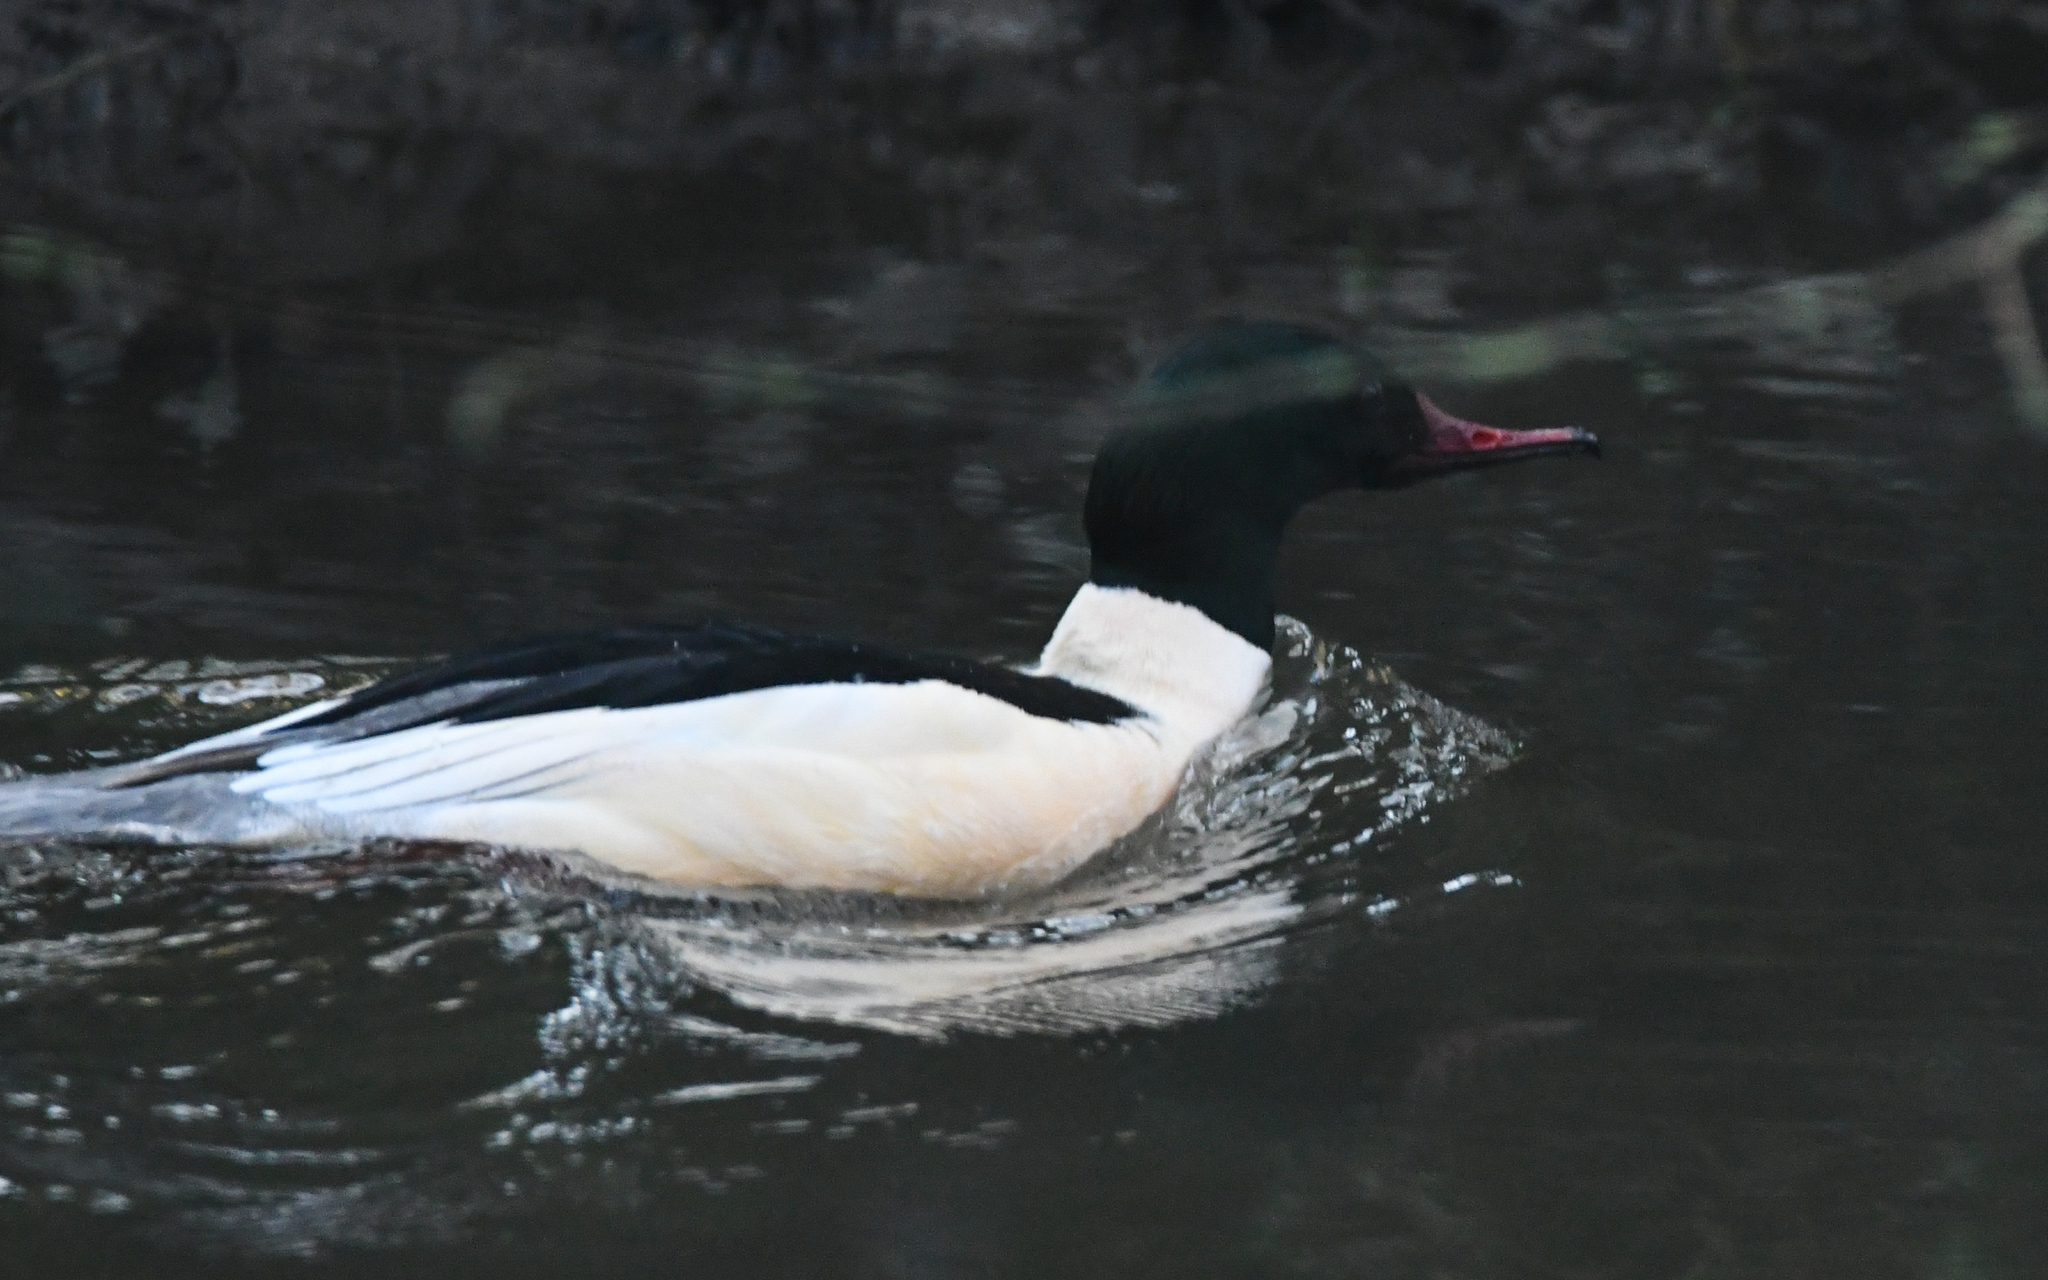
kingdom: Animalia
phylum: Chordata
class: Aves
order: Anseriformes
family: Anatidae
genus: Mergus
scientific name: Mergus merganser
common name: Common merganser
